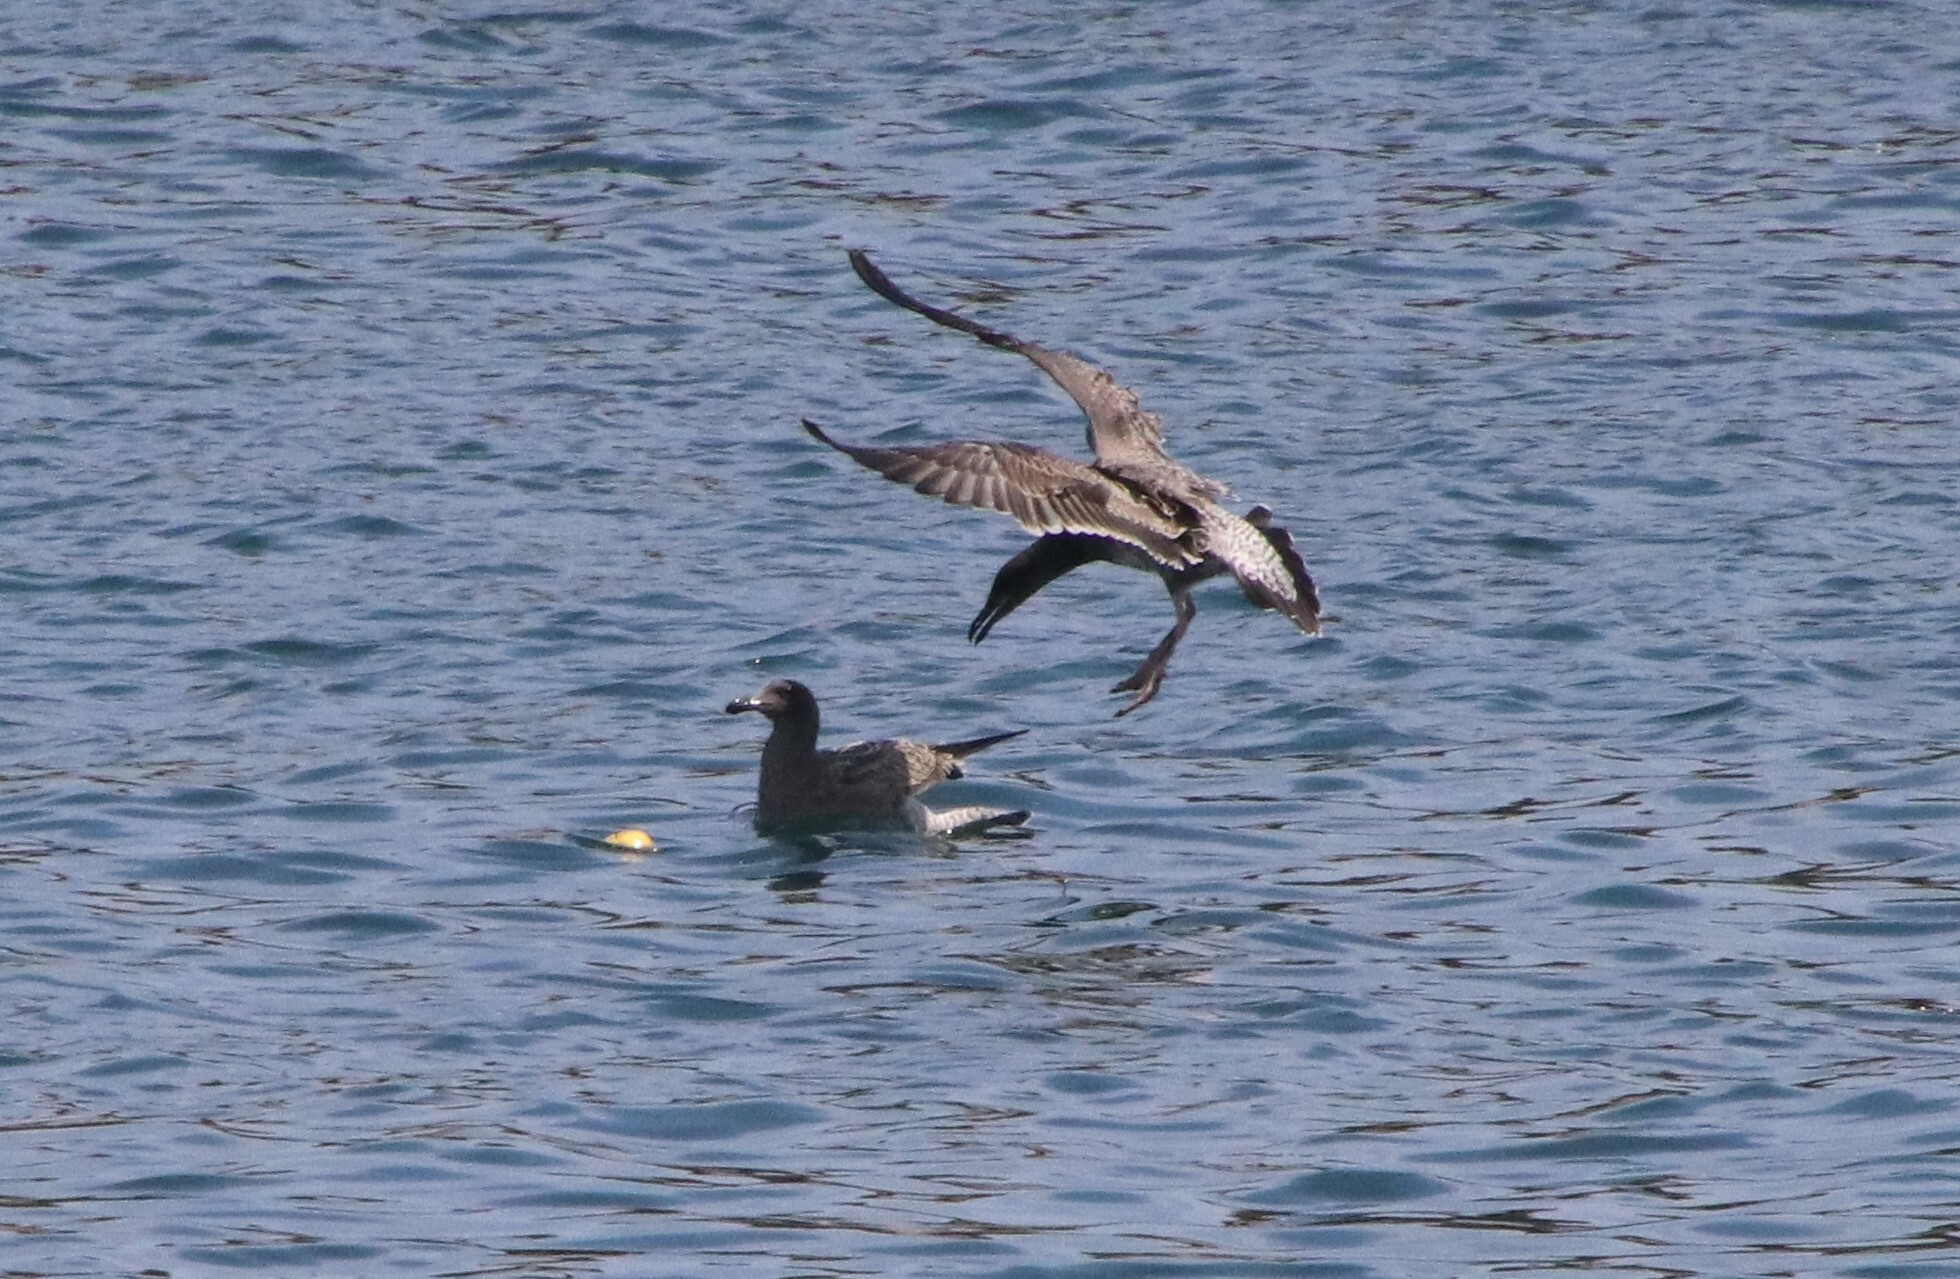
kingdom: Animalia
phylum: Chordata
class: Aves
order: Charadriiformes
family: Laridae
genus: Larus
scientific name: Larus occidentalis
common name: Western gull
